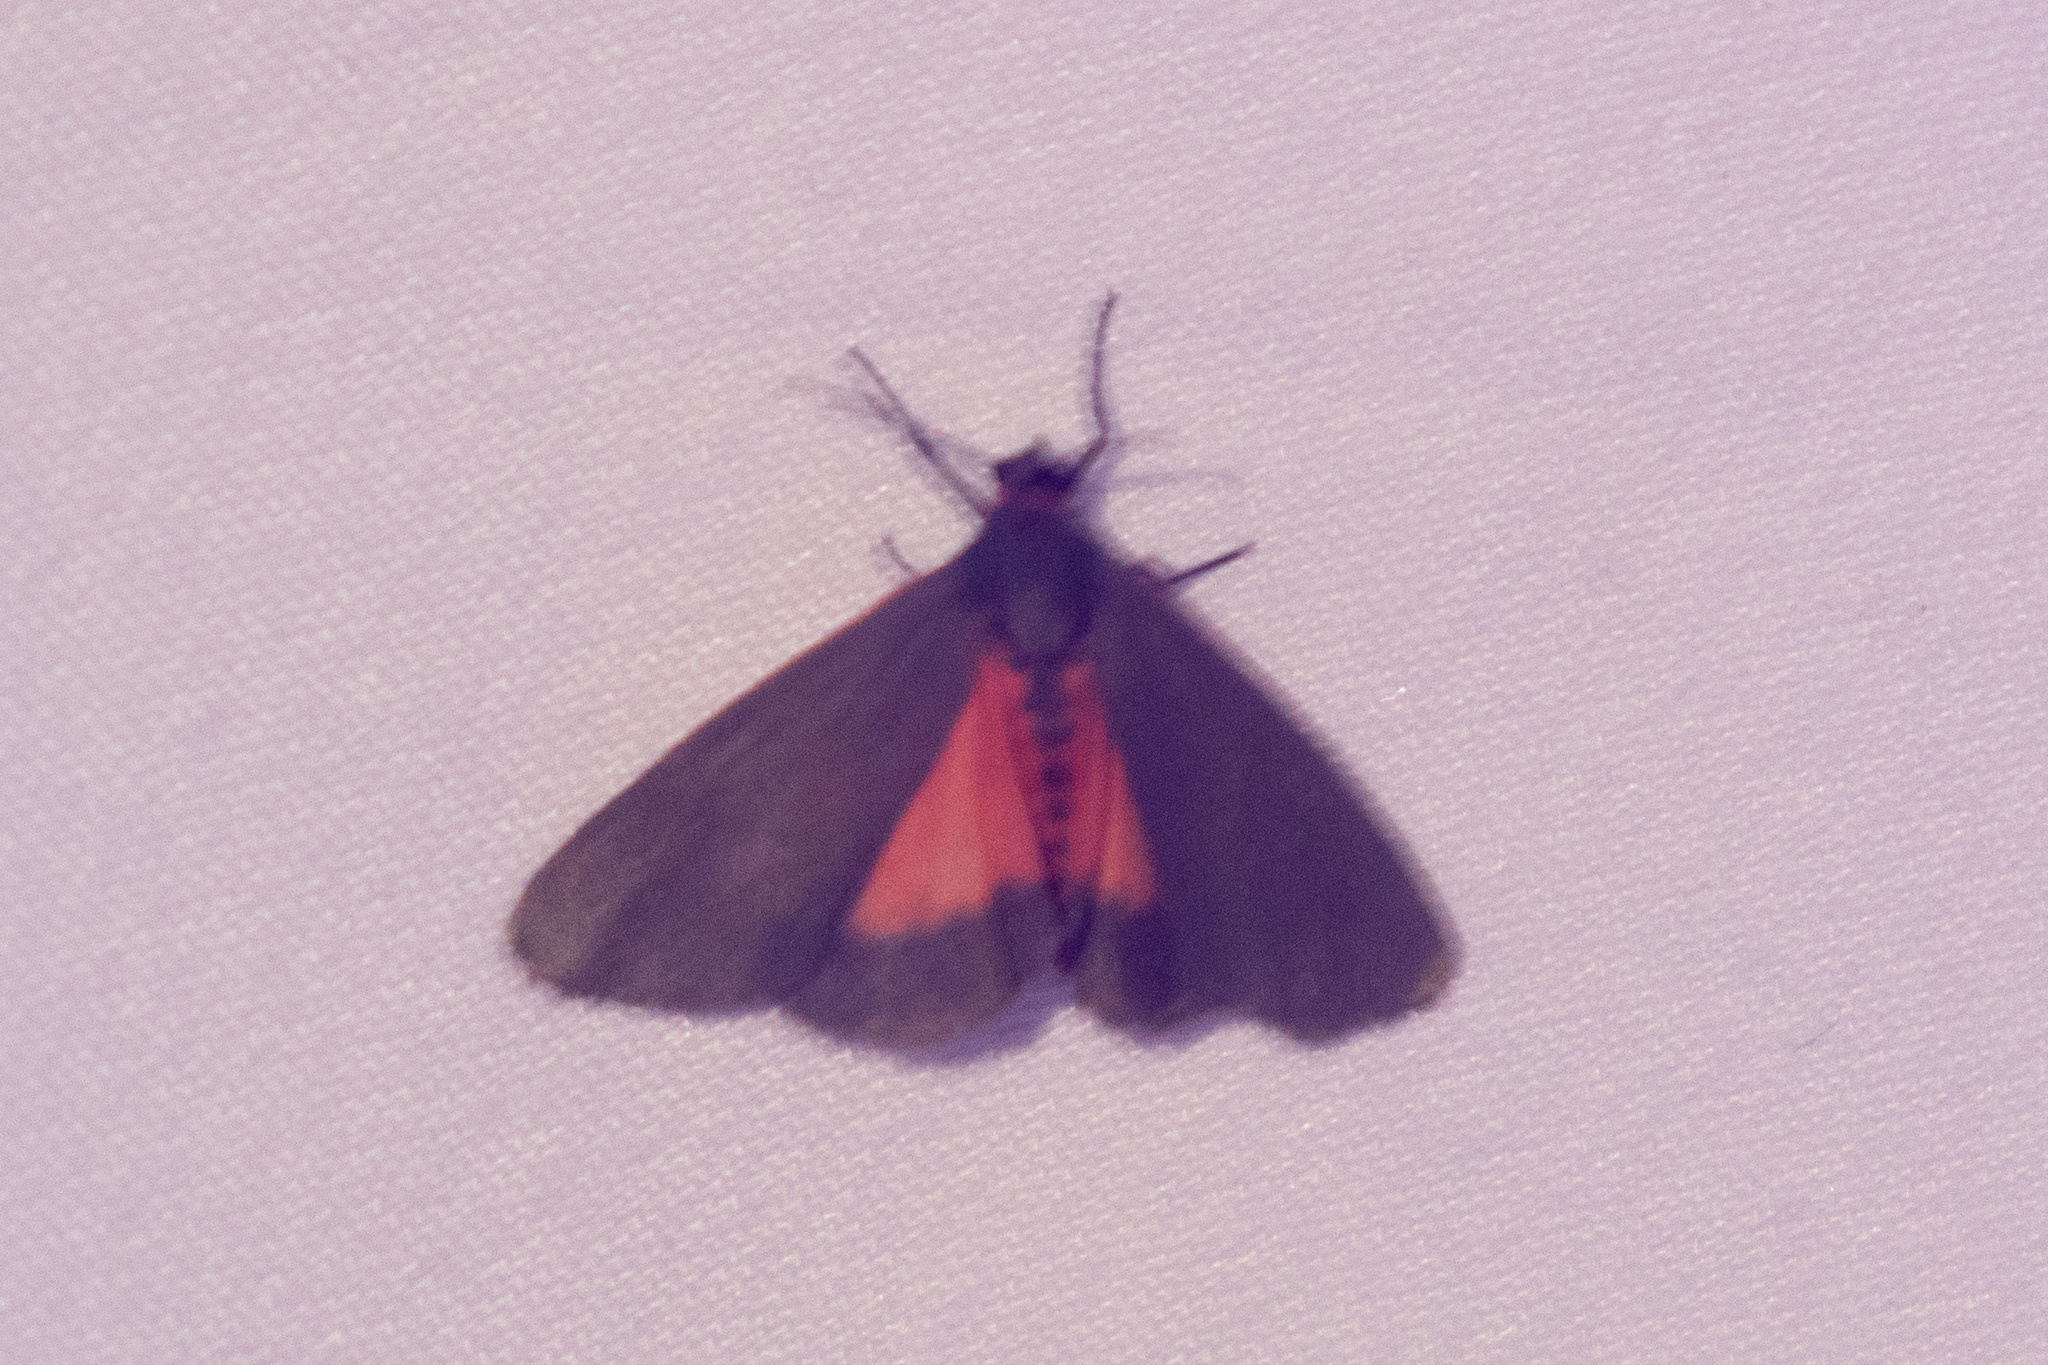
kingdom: Animalia
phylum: Arthropoda
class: Insecta
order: Lepidoptera
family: Erebidae
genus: Virbia
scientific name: Virbia laeta
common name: Joyful holomelina moth
